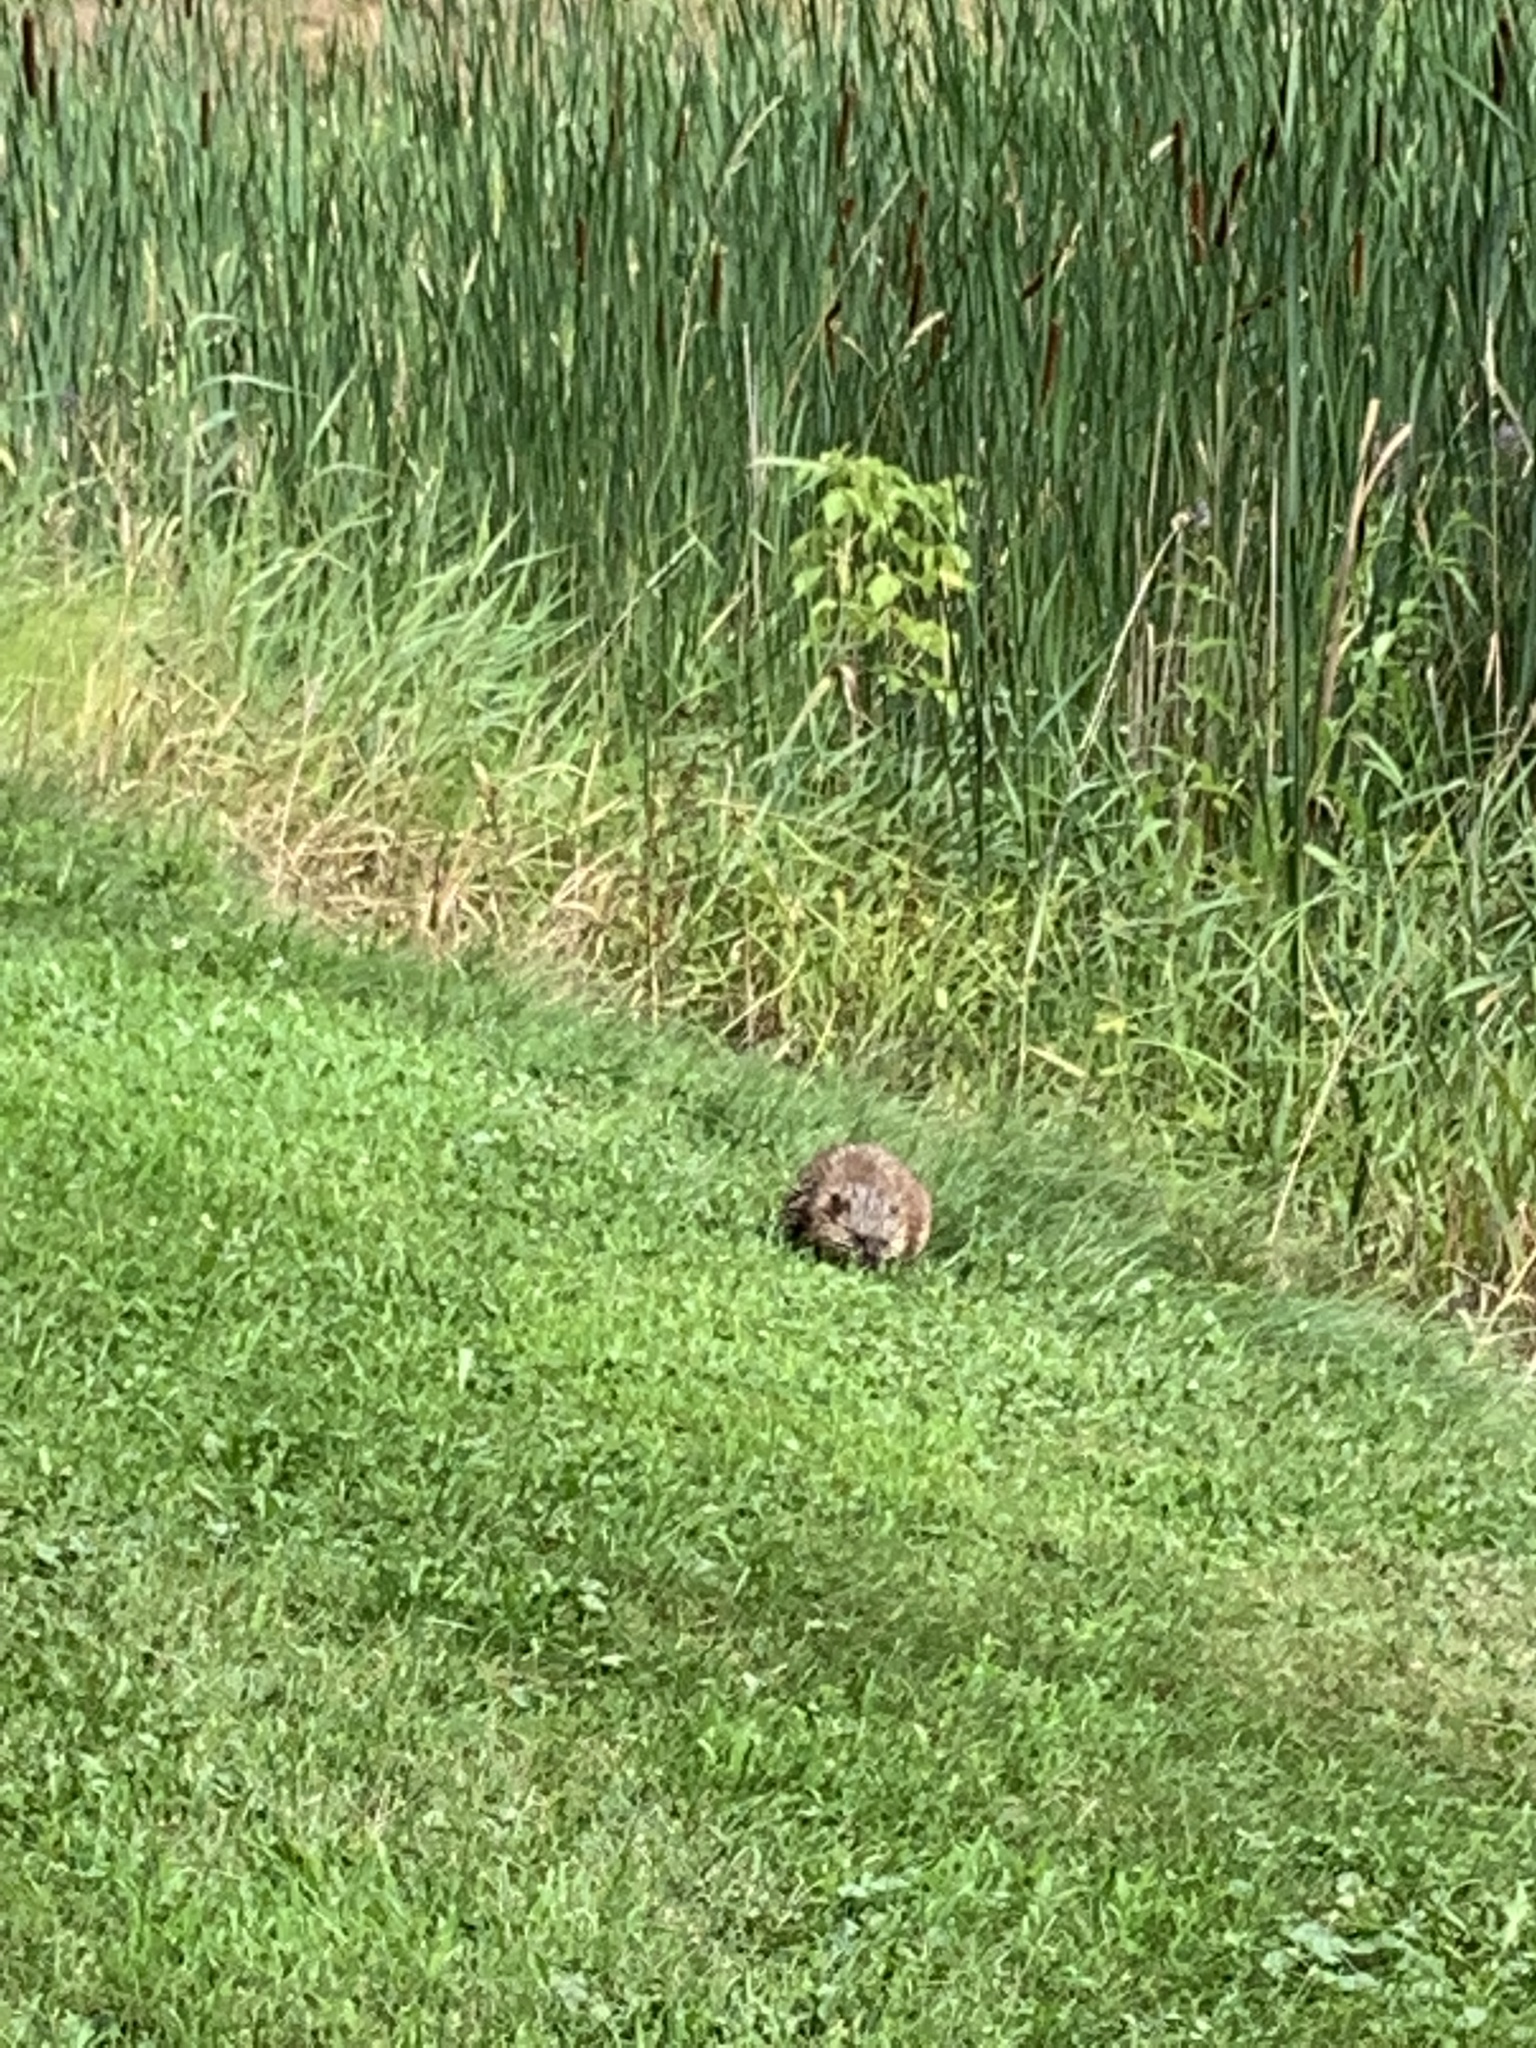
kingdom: Animalia
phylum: Chordata
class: Mammalia
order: Rodentia
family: Sciuridae
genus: Marmota
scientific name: Marmota monax
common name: Groundhog
